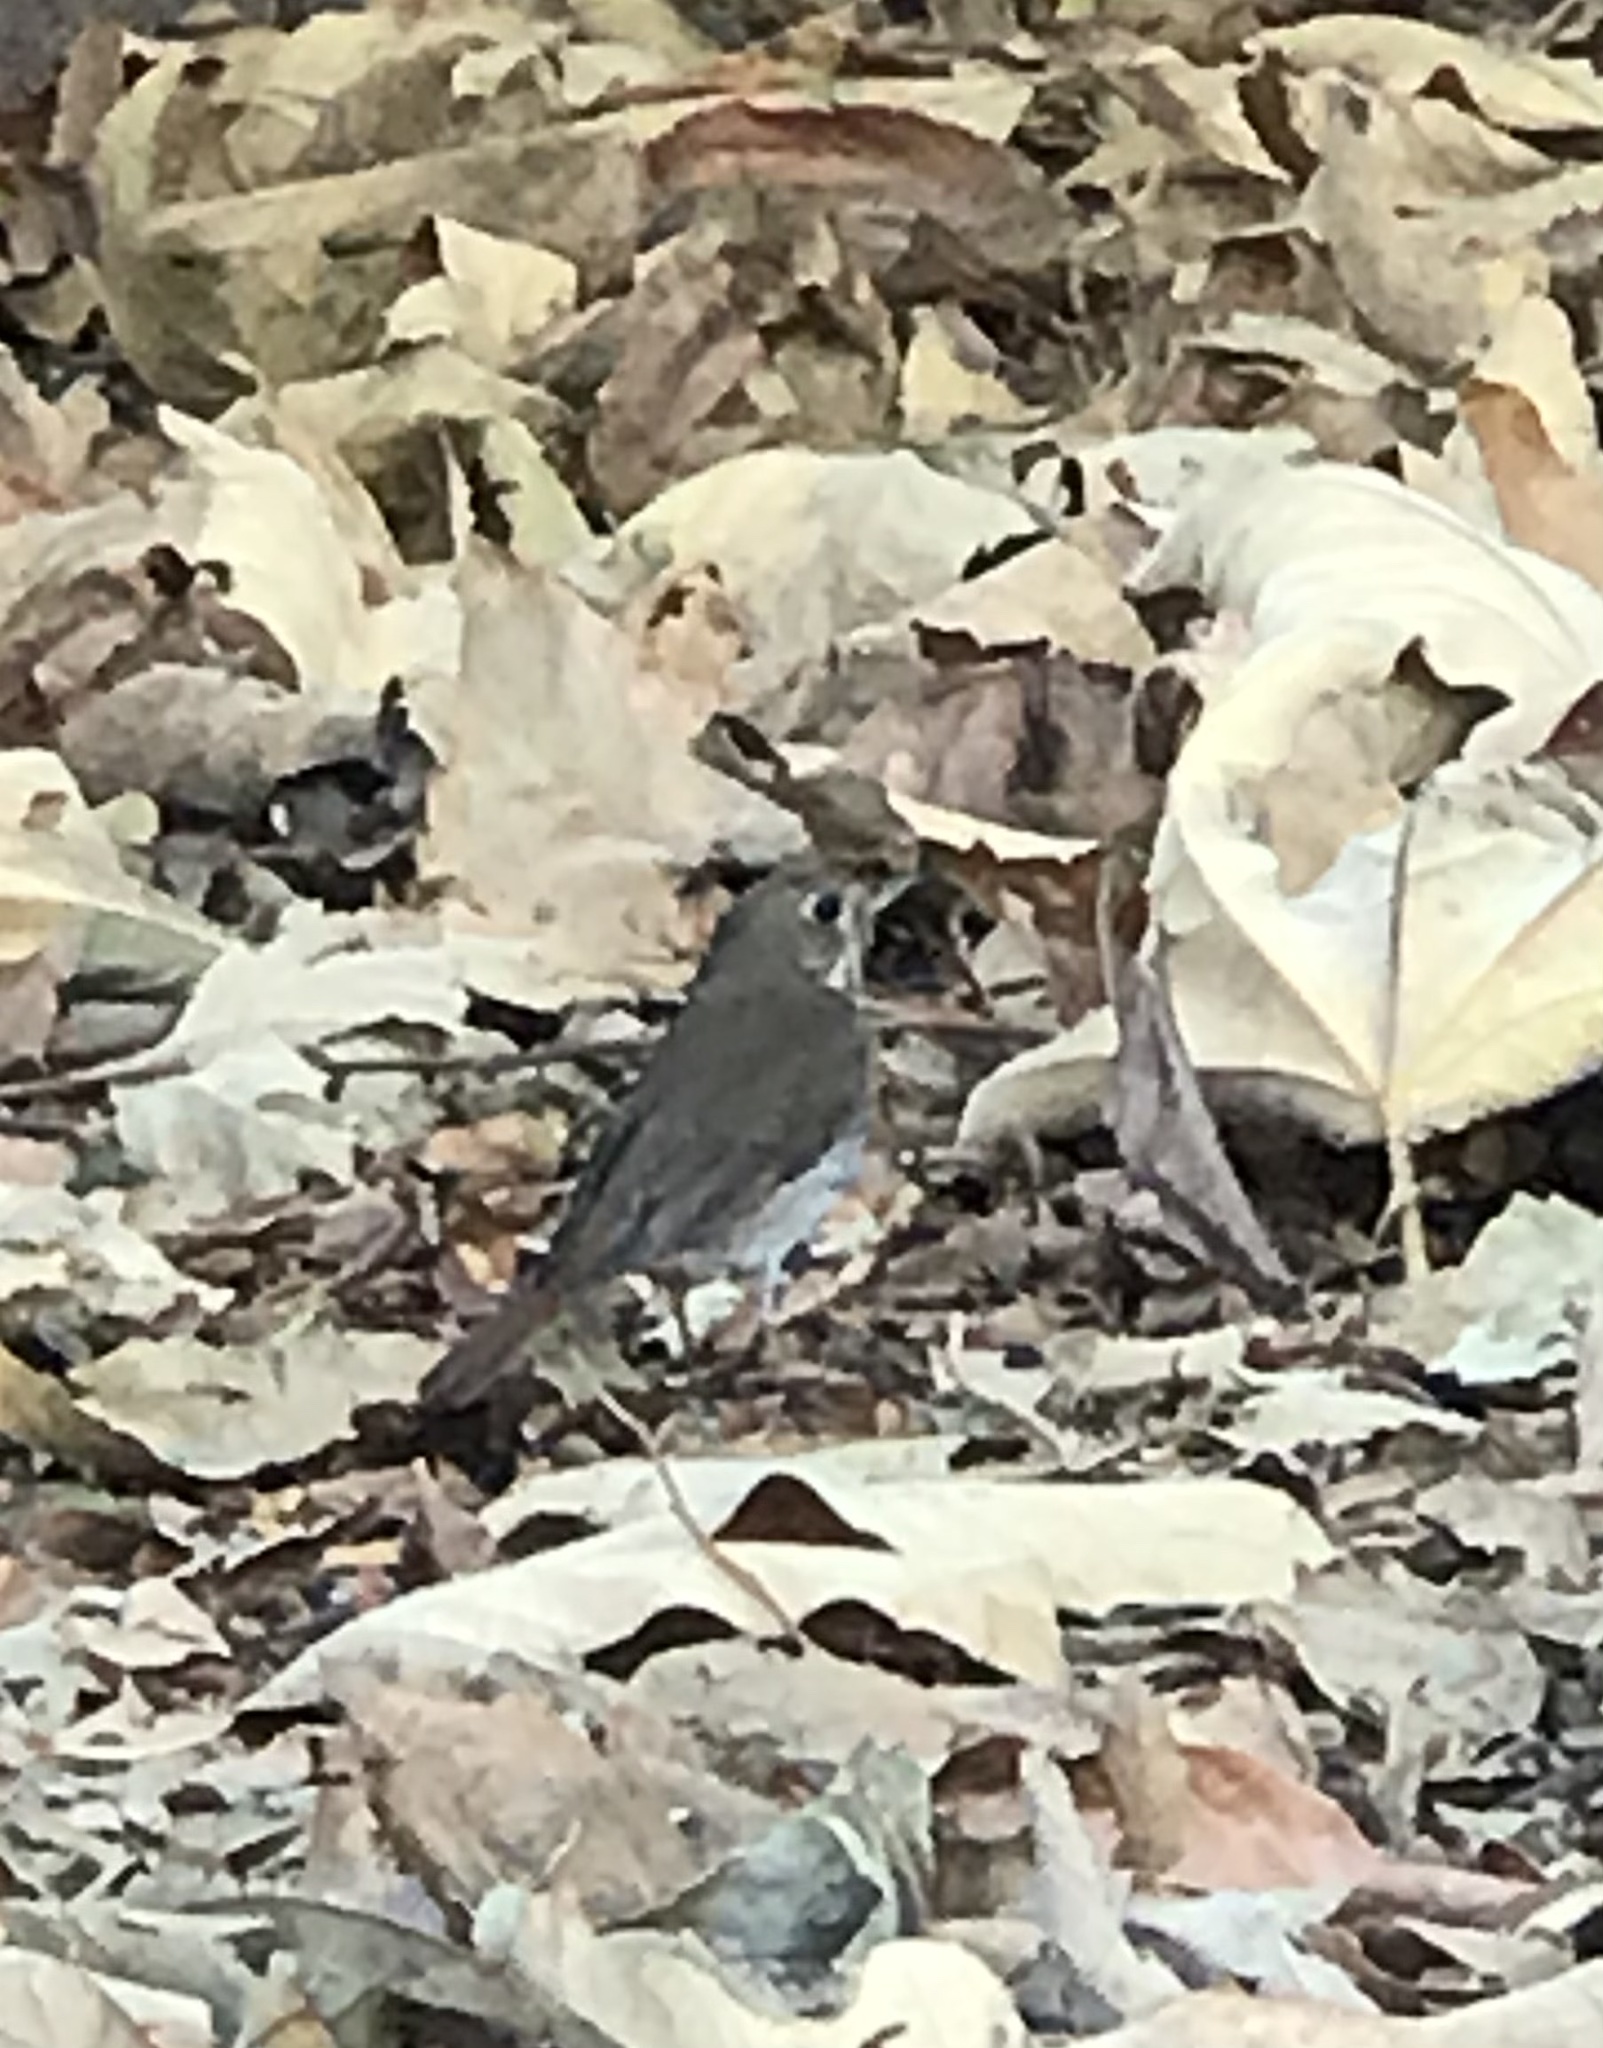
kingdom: Animalia
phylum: Chordata
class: Aves
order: Passeriformes
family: Turdidae
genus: Catharus
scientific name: Catharus guttatus
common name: Hermit thrush
